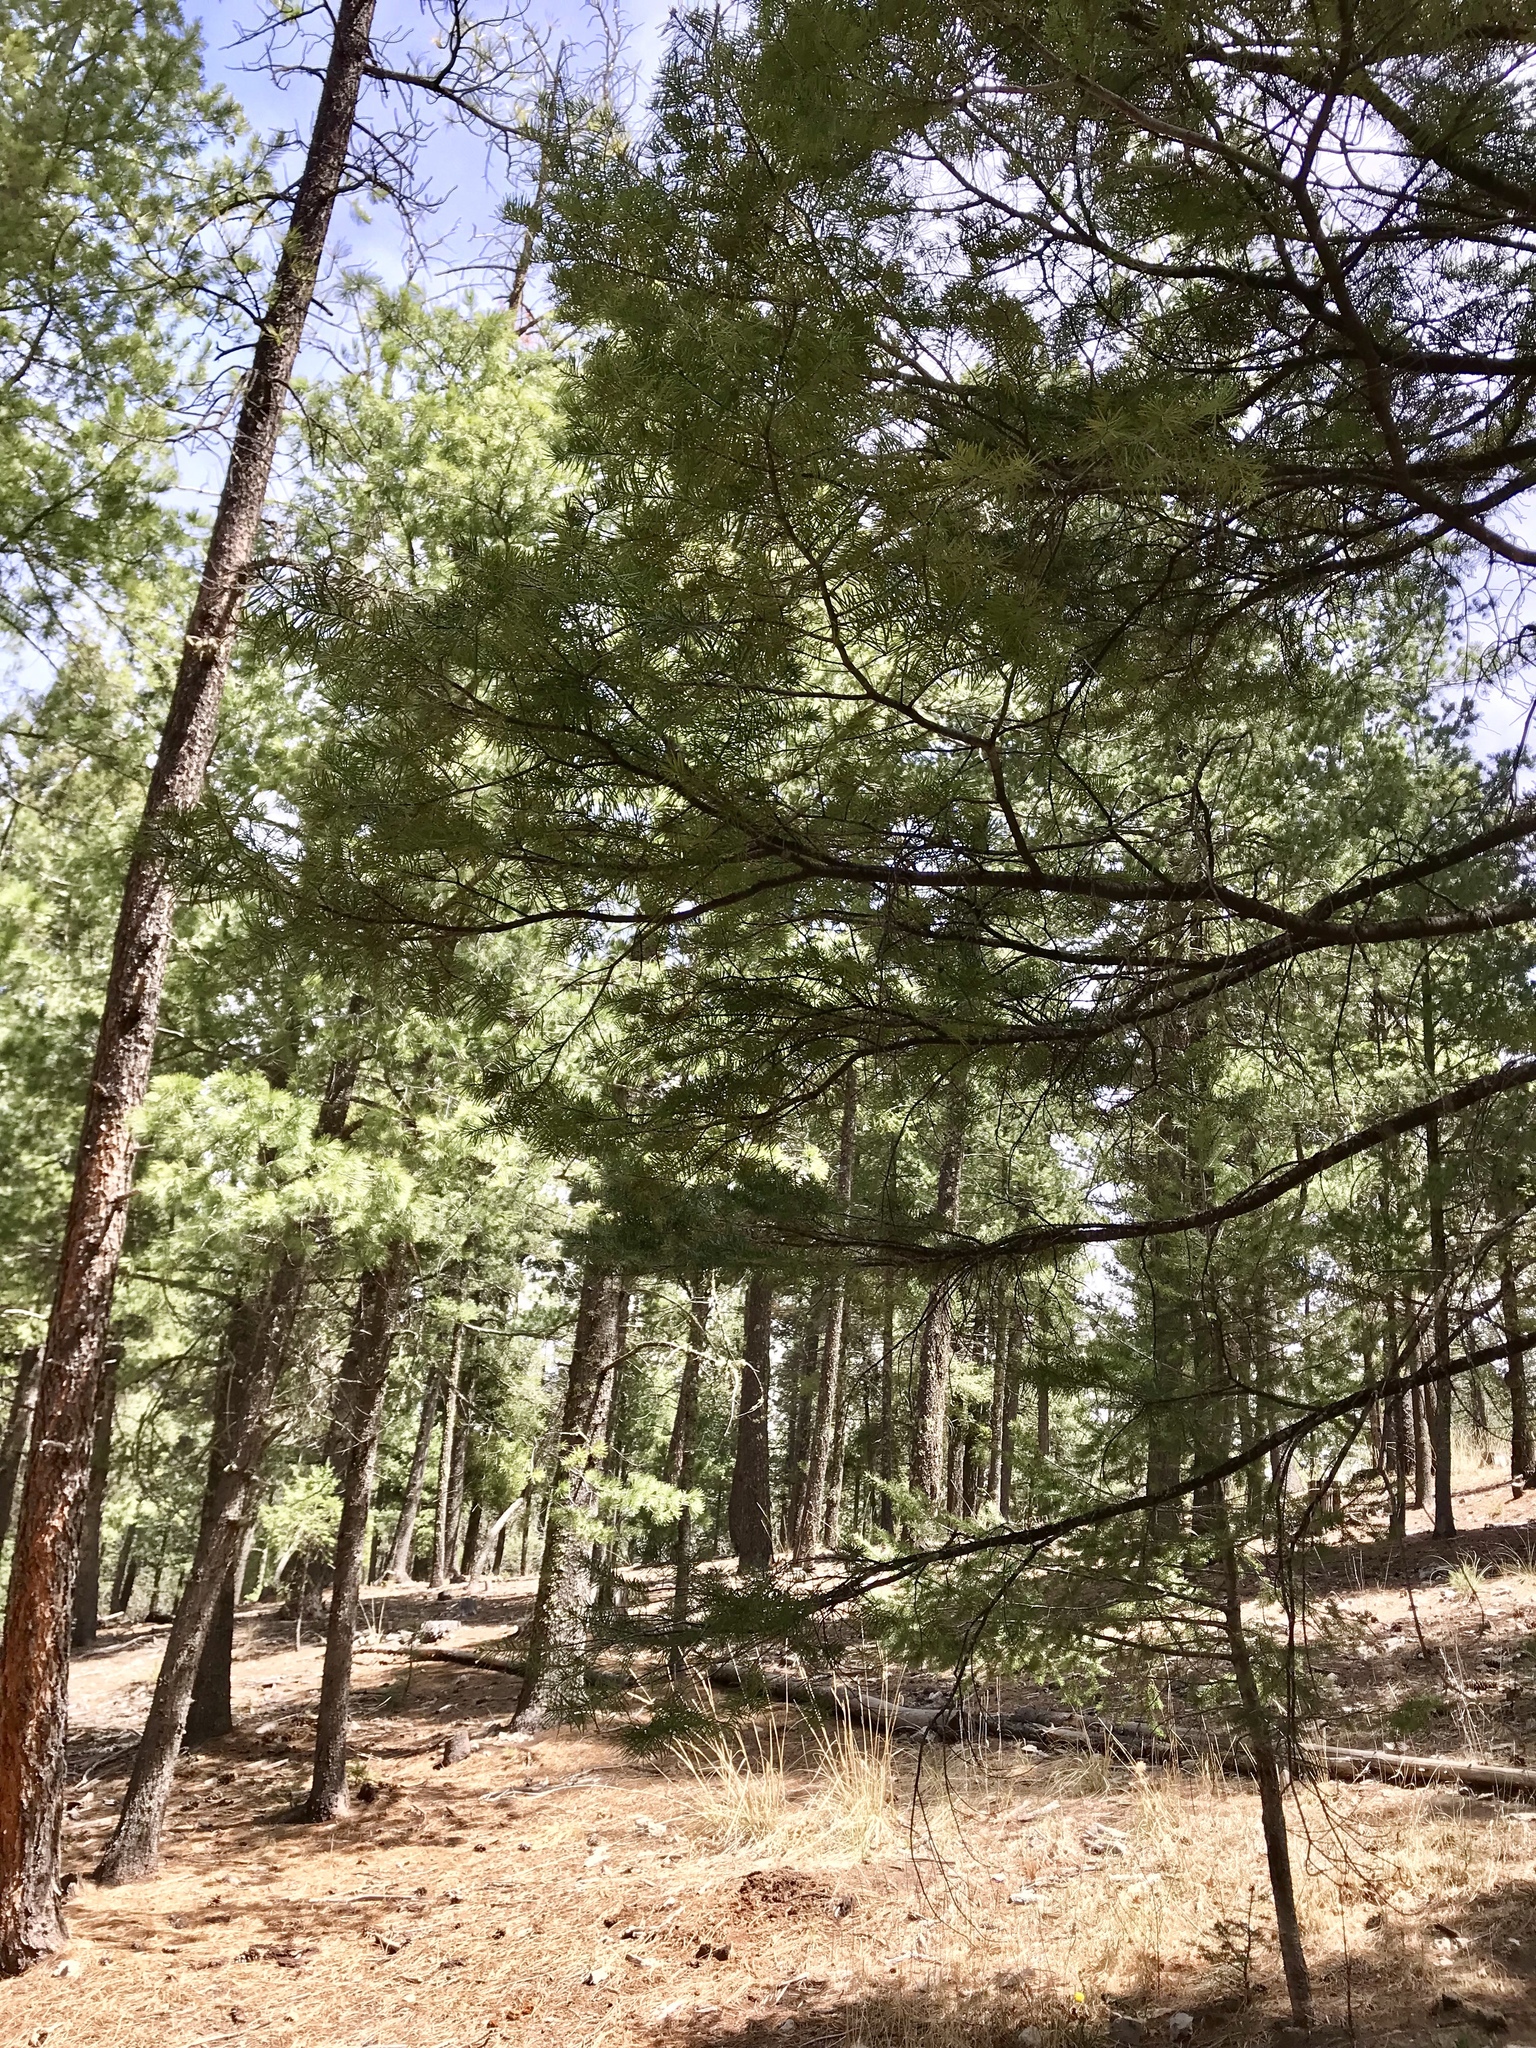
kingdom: Plantae
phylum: Tracheophyta
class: Pinopsida
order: Pinales
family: Pinaceae
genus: Abies
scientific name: Abies concolor
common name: Colorado fir
